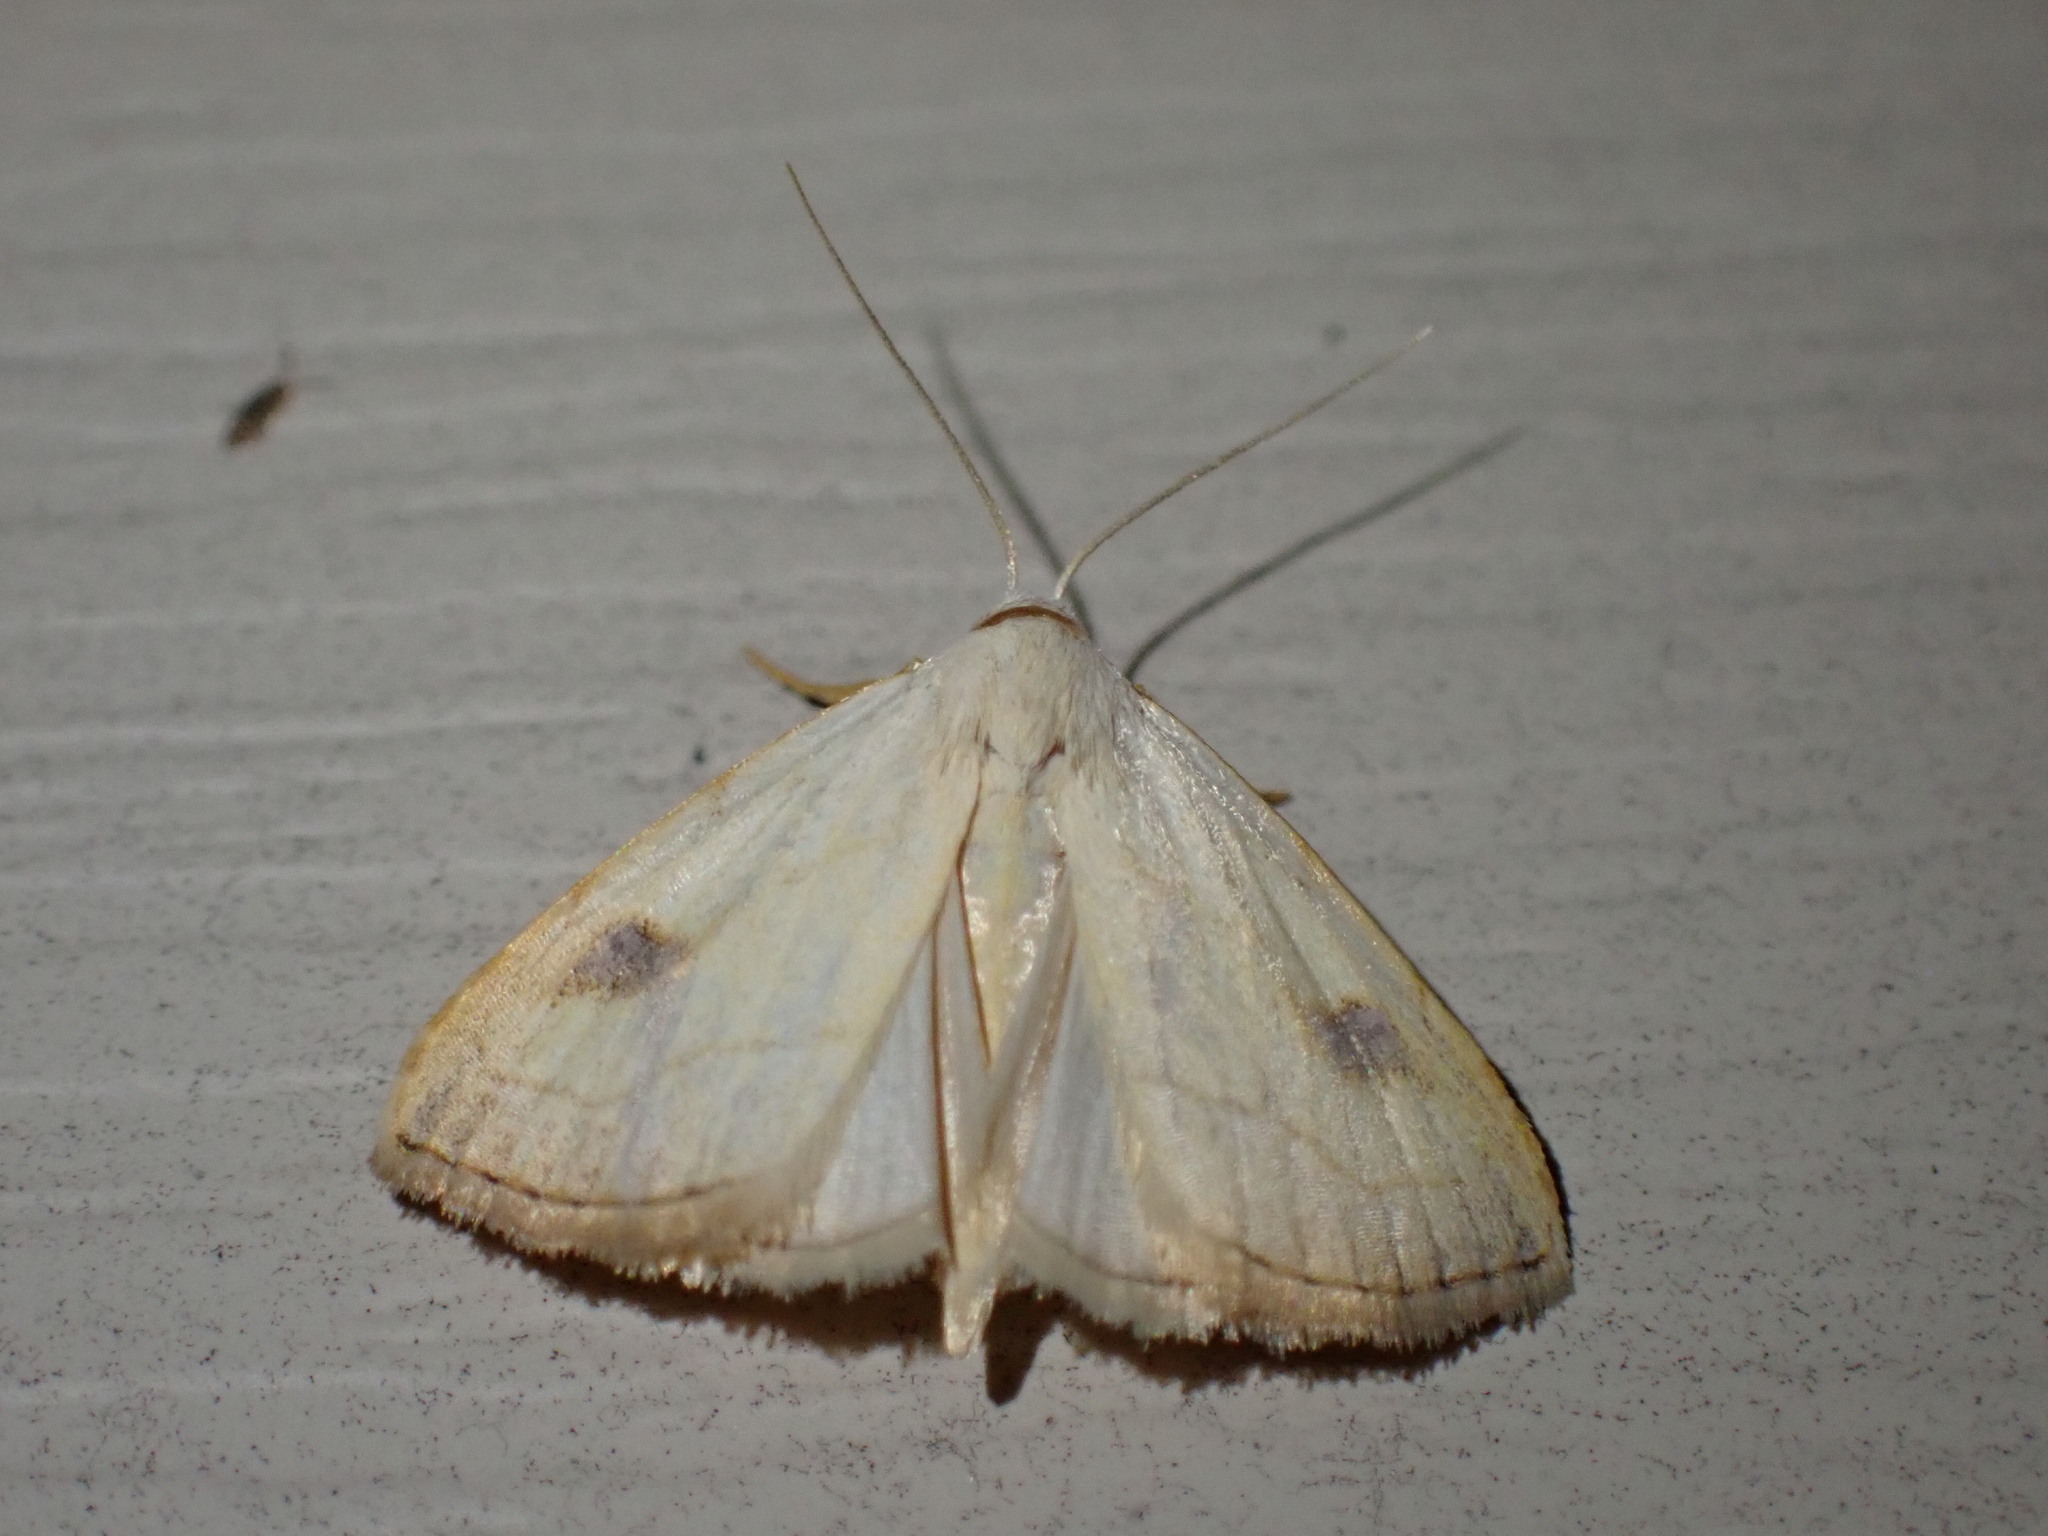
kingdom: Animalia
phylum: Arthropoda
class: Insecta
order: Lepidoptera
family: Erebidae
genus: Rivula
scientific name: Rivula propinqualis
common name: Spotted grass moth
